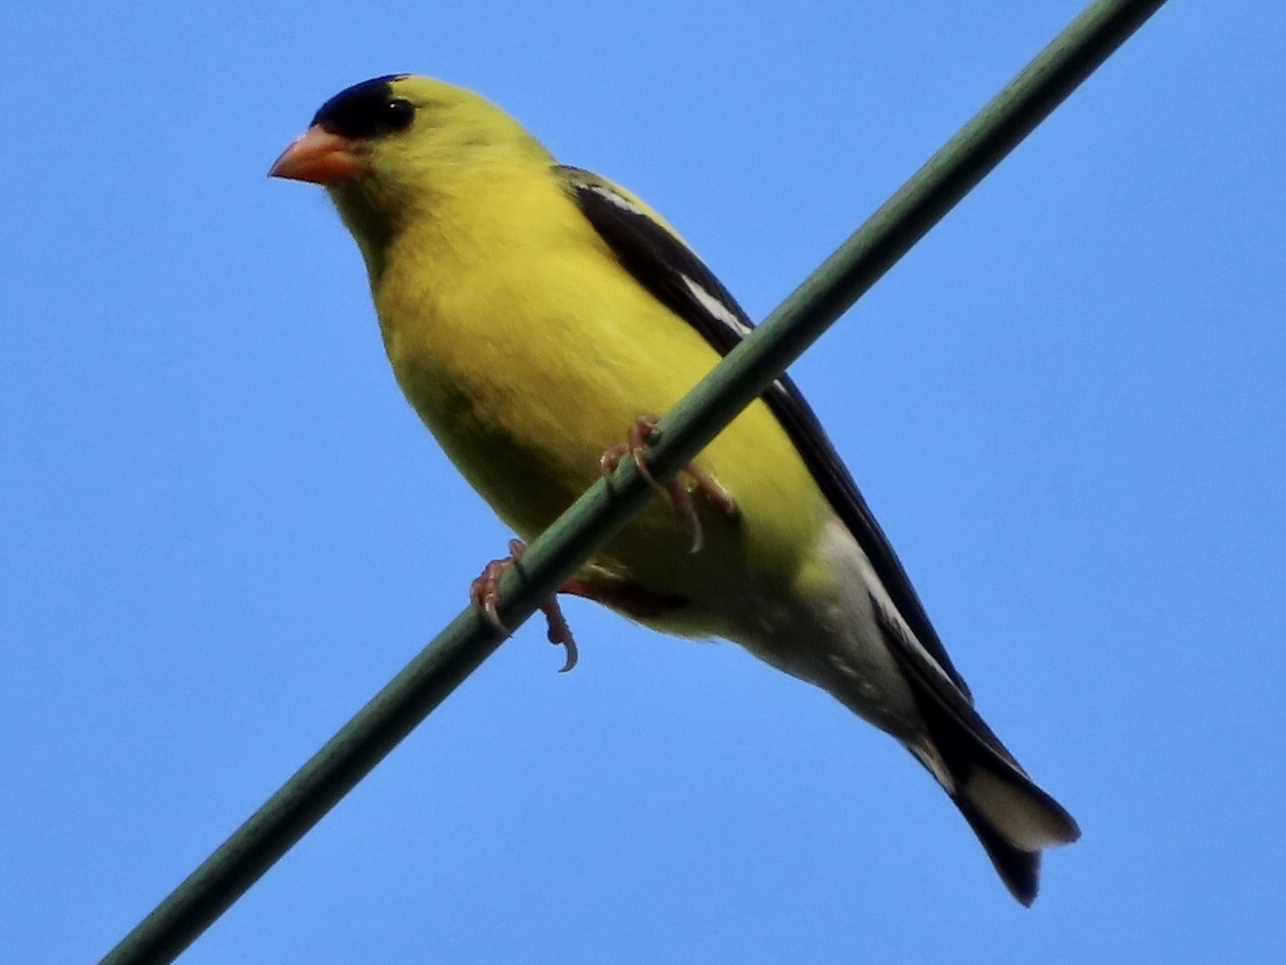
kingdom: Animalia
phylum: Chordata
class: Aves
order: Passeriformes
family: Fringillidae
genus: Spinus
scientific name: Spinus tristis
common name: American goldfinch
